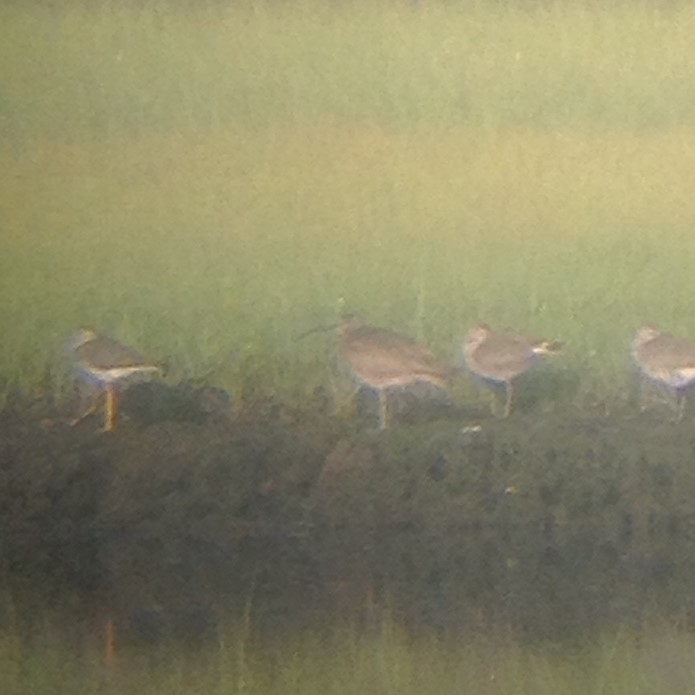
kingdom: Animalia
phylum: Chordata
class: Aves
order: Charadriiformes
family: Scolopacidae
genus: Numenius
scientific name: Numenius phaeopus
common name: Whimbrel
